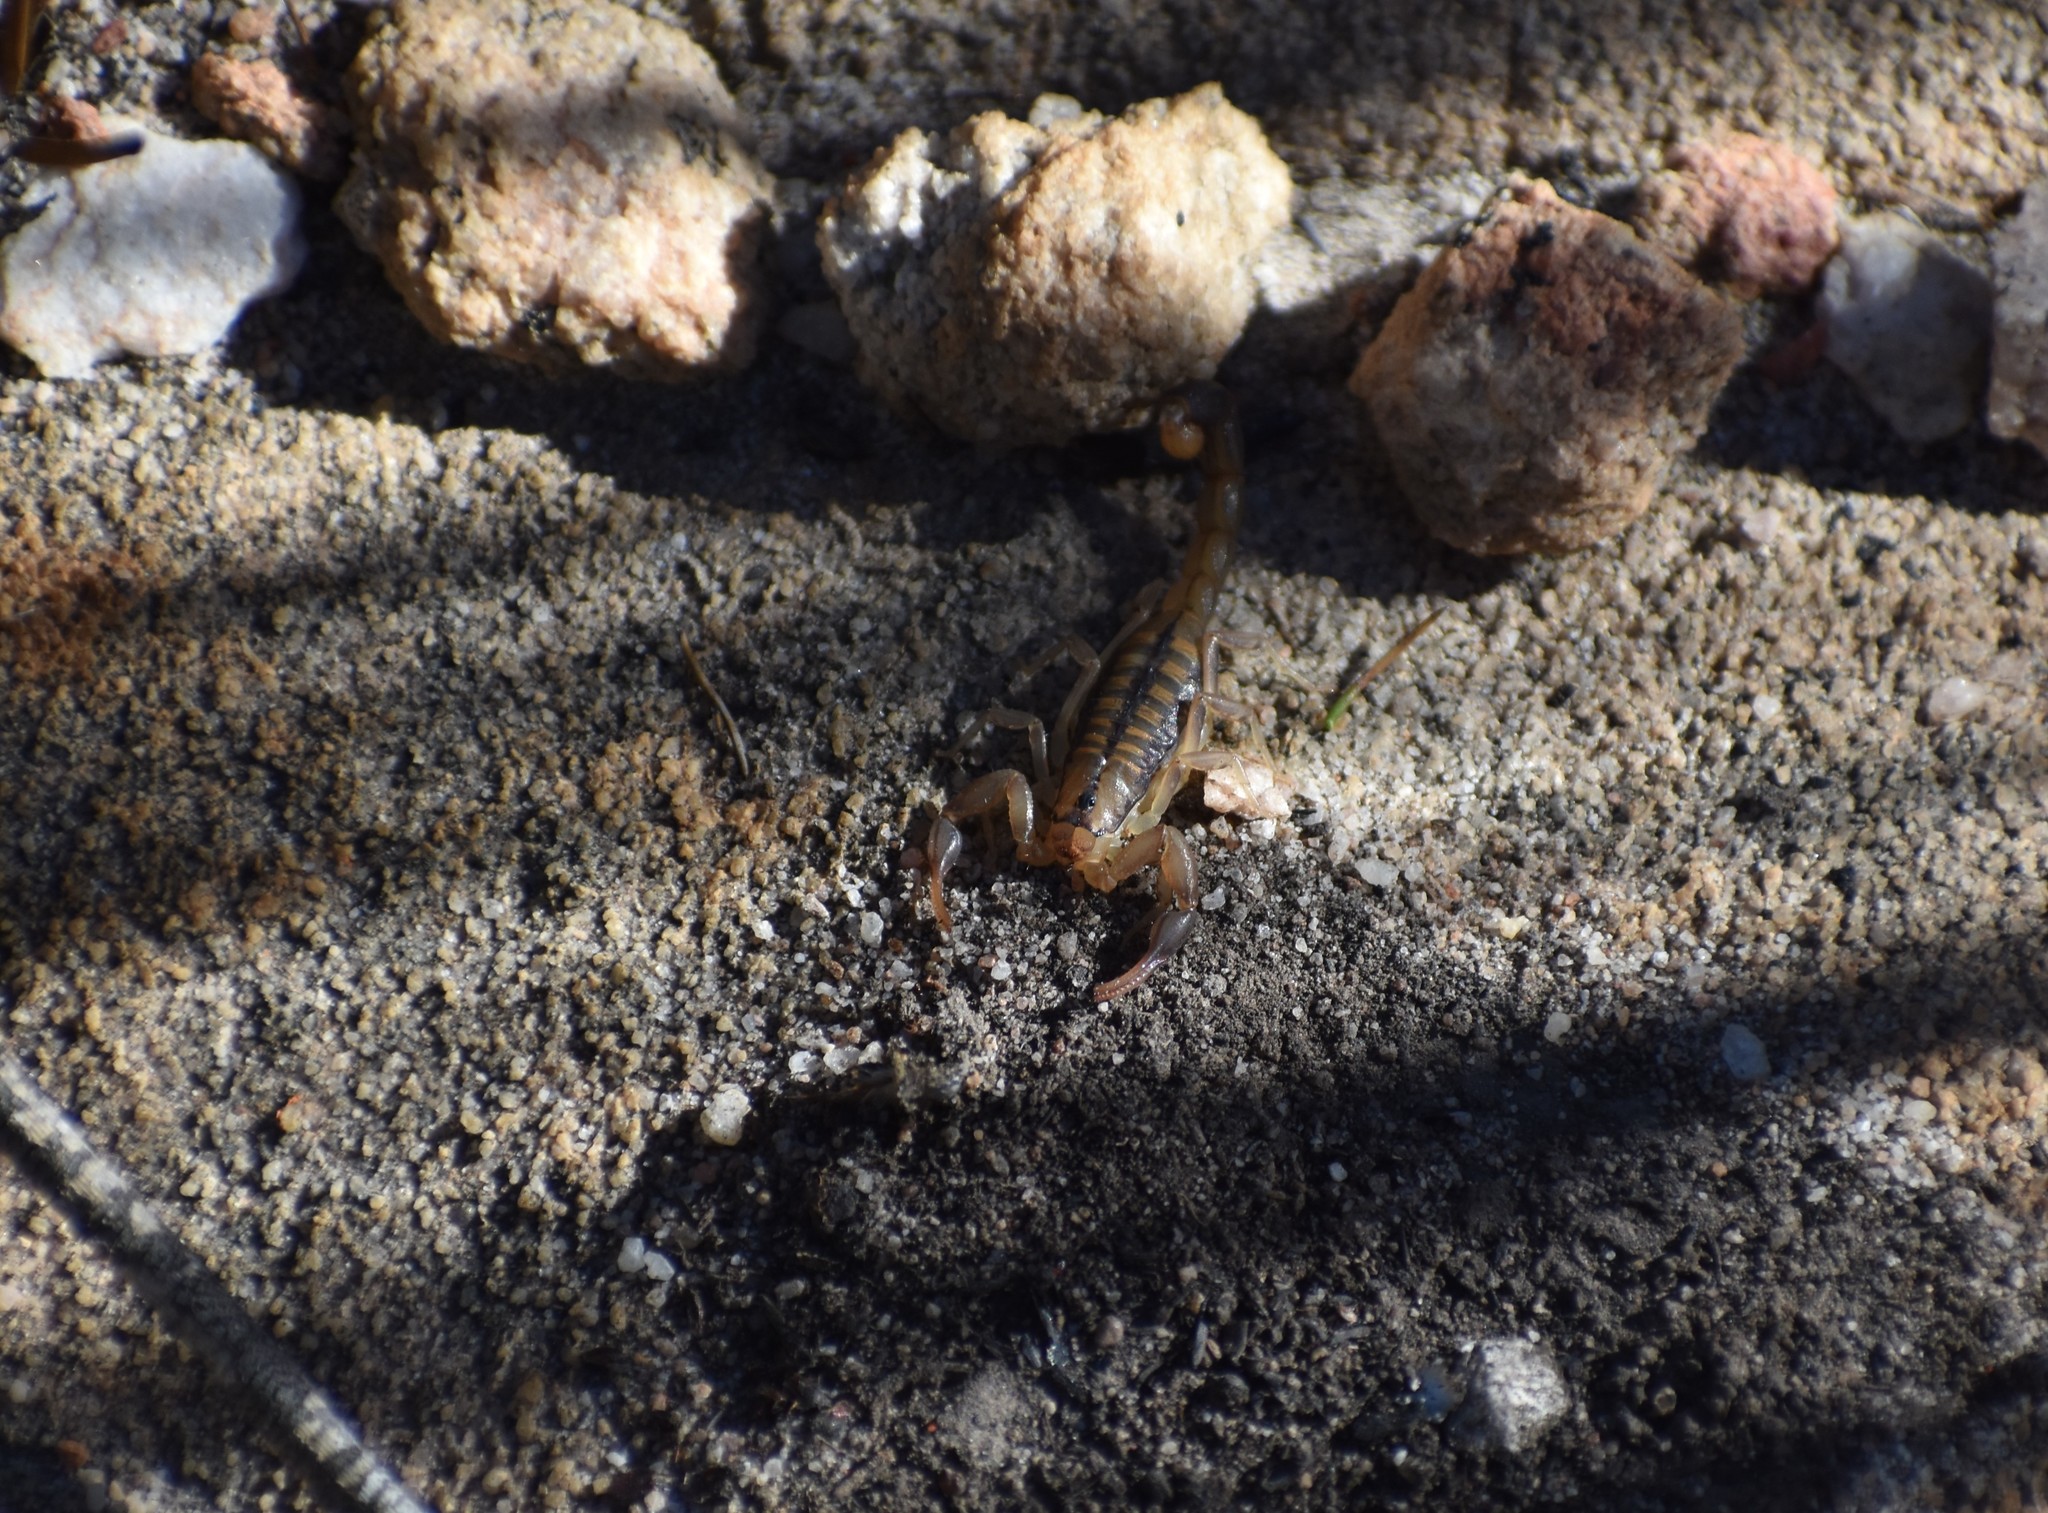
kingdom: Animalia
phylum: Arthropoda
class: Arachnida
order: Scorpiones
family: Buthidae
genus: Uroplectes
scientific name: Uroplectes marlothi
